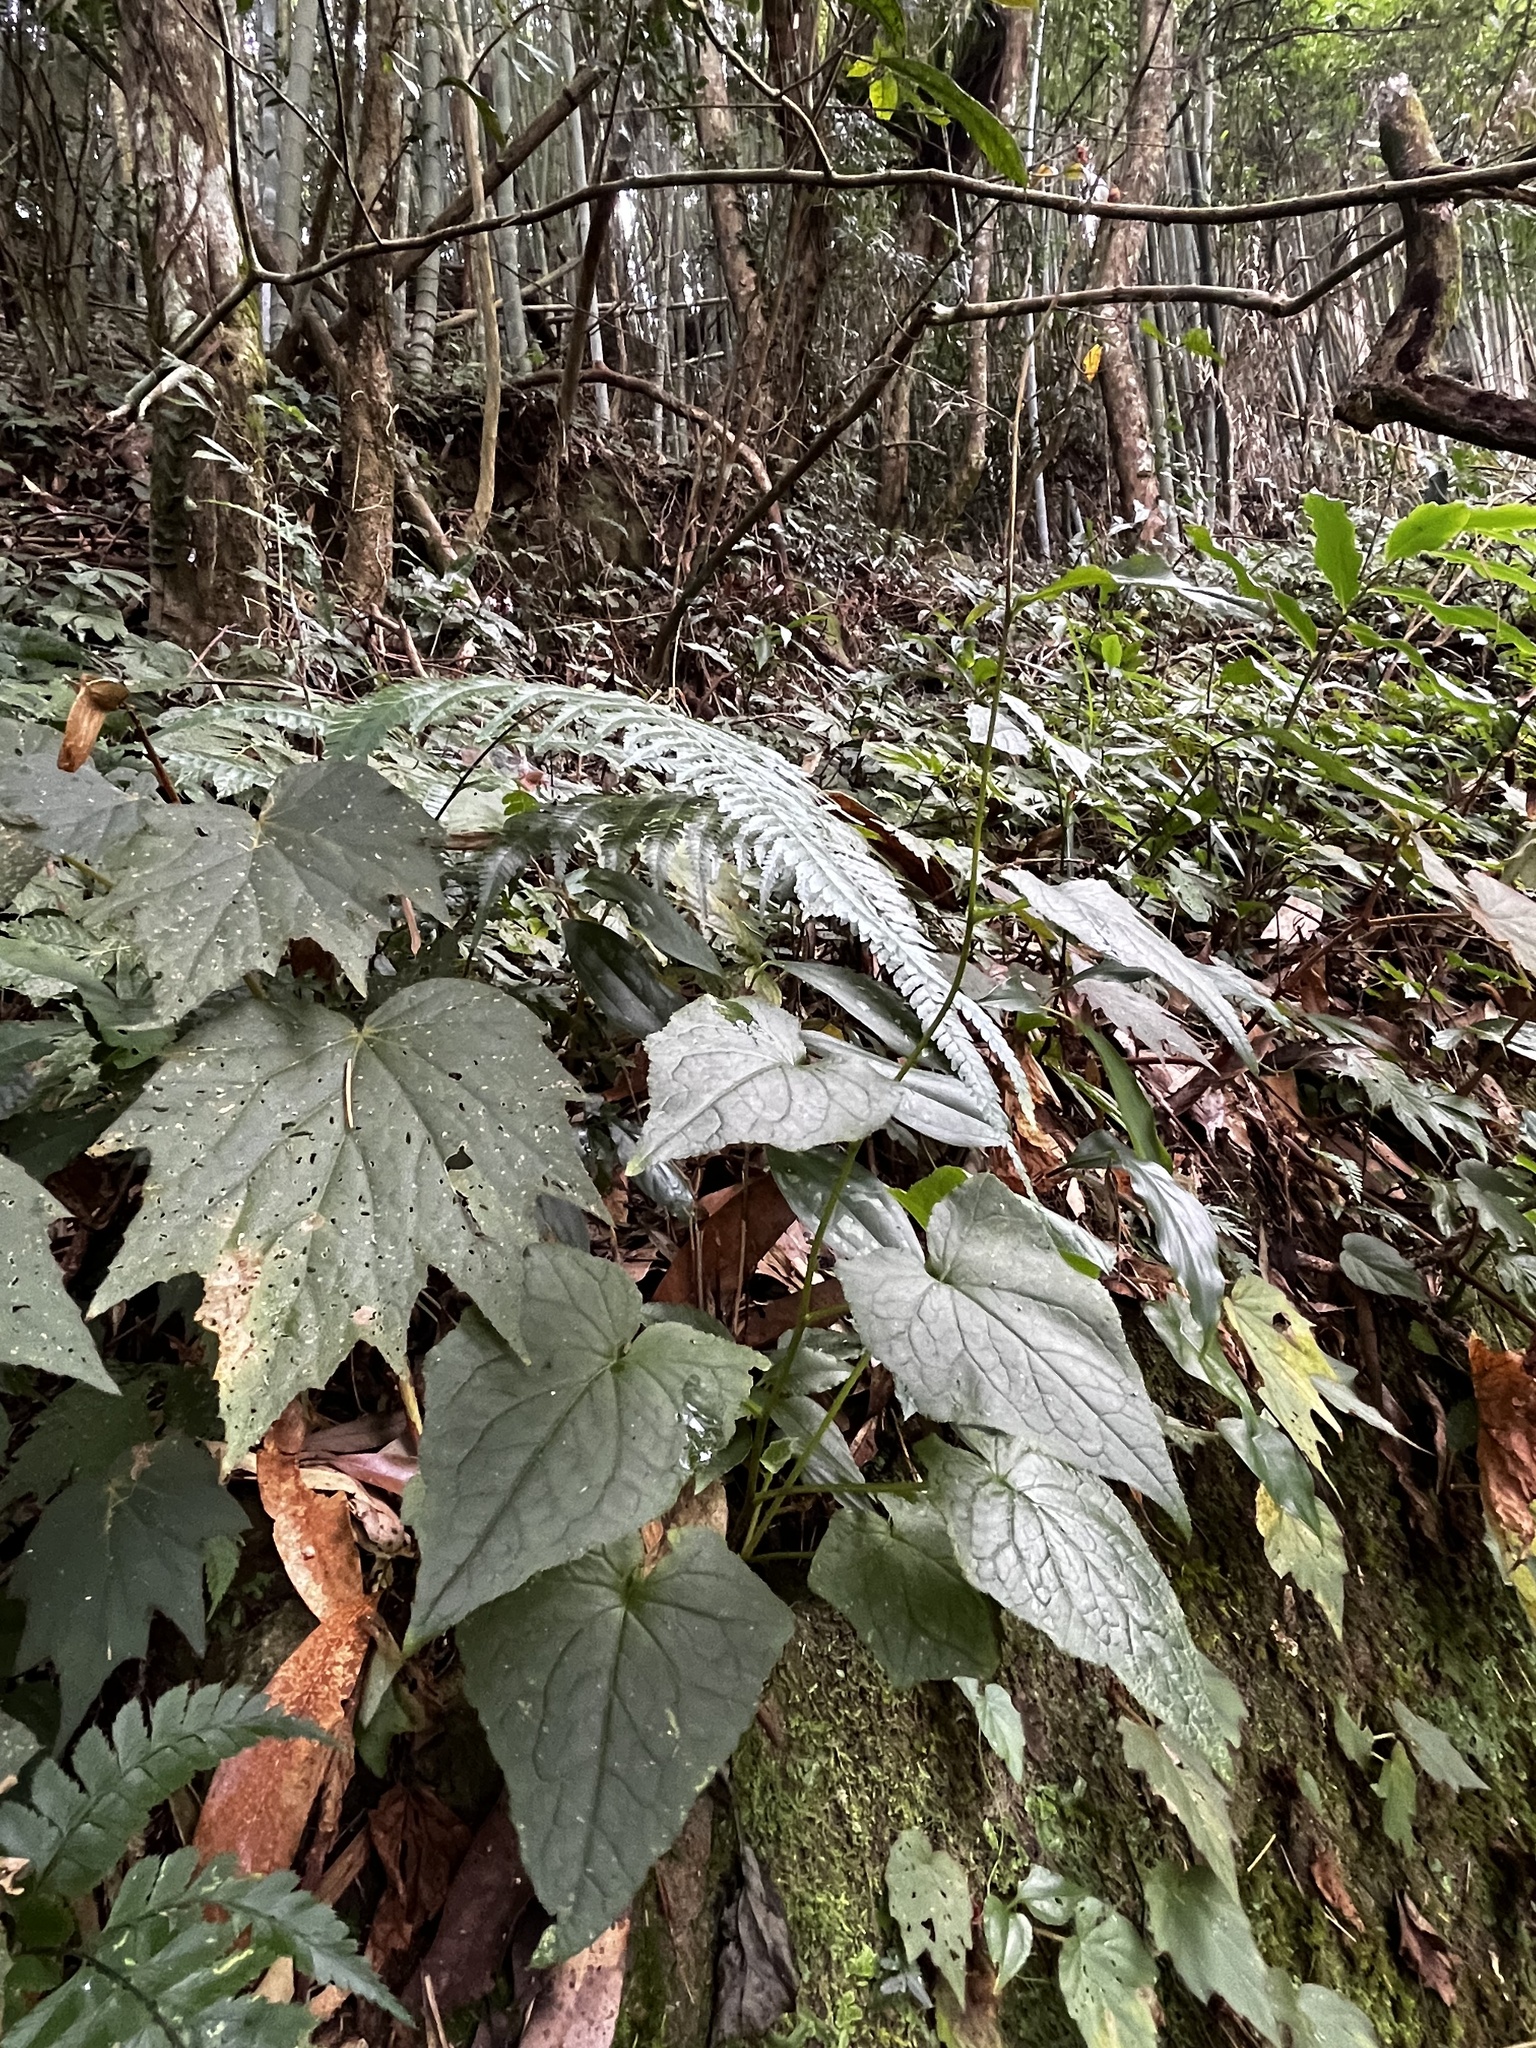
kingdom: Plantae
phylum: Tracheophyta
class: Magnoliopsida
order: Asterales
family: Asteraceae
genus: Paraprenanthes
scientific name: Paraprenanthes sororia
